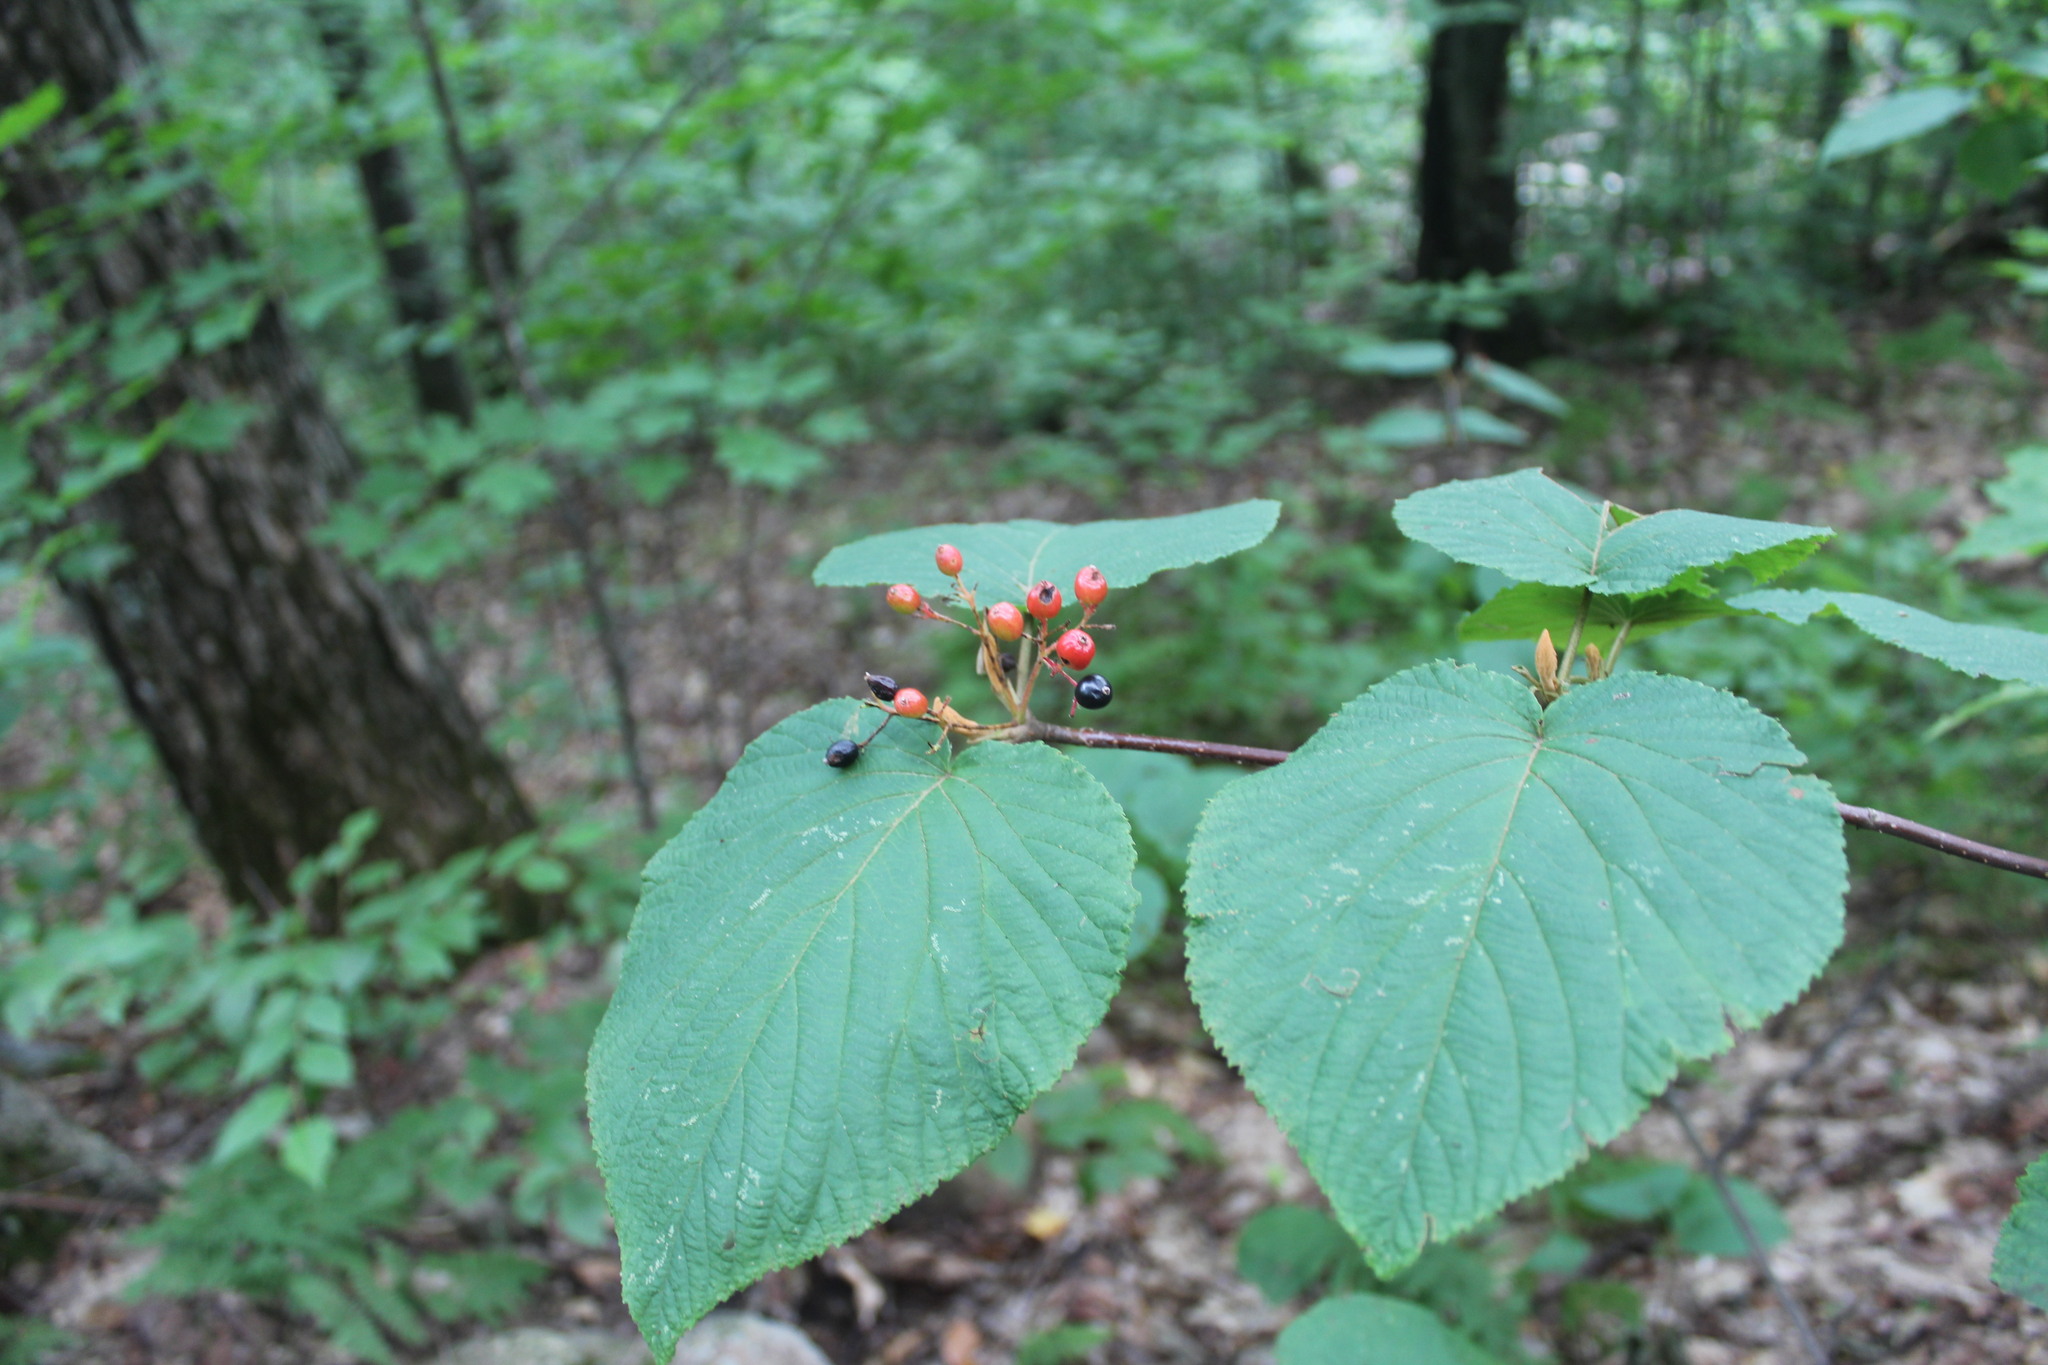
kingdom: Plantae
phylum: Tracheophyta
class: Magnoliopsida
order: Dipsacales
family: Viburnaceae
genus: Viburnum
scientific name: Viburnum lantanoides
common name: Hobblebush
